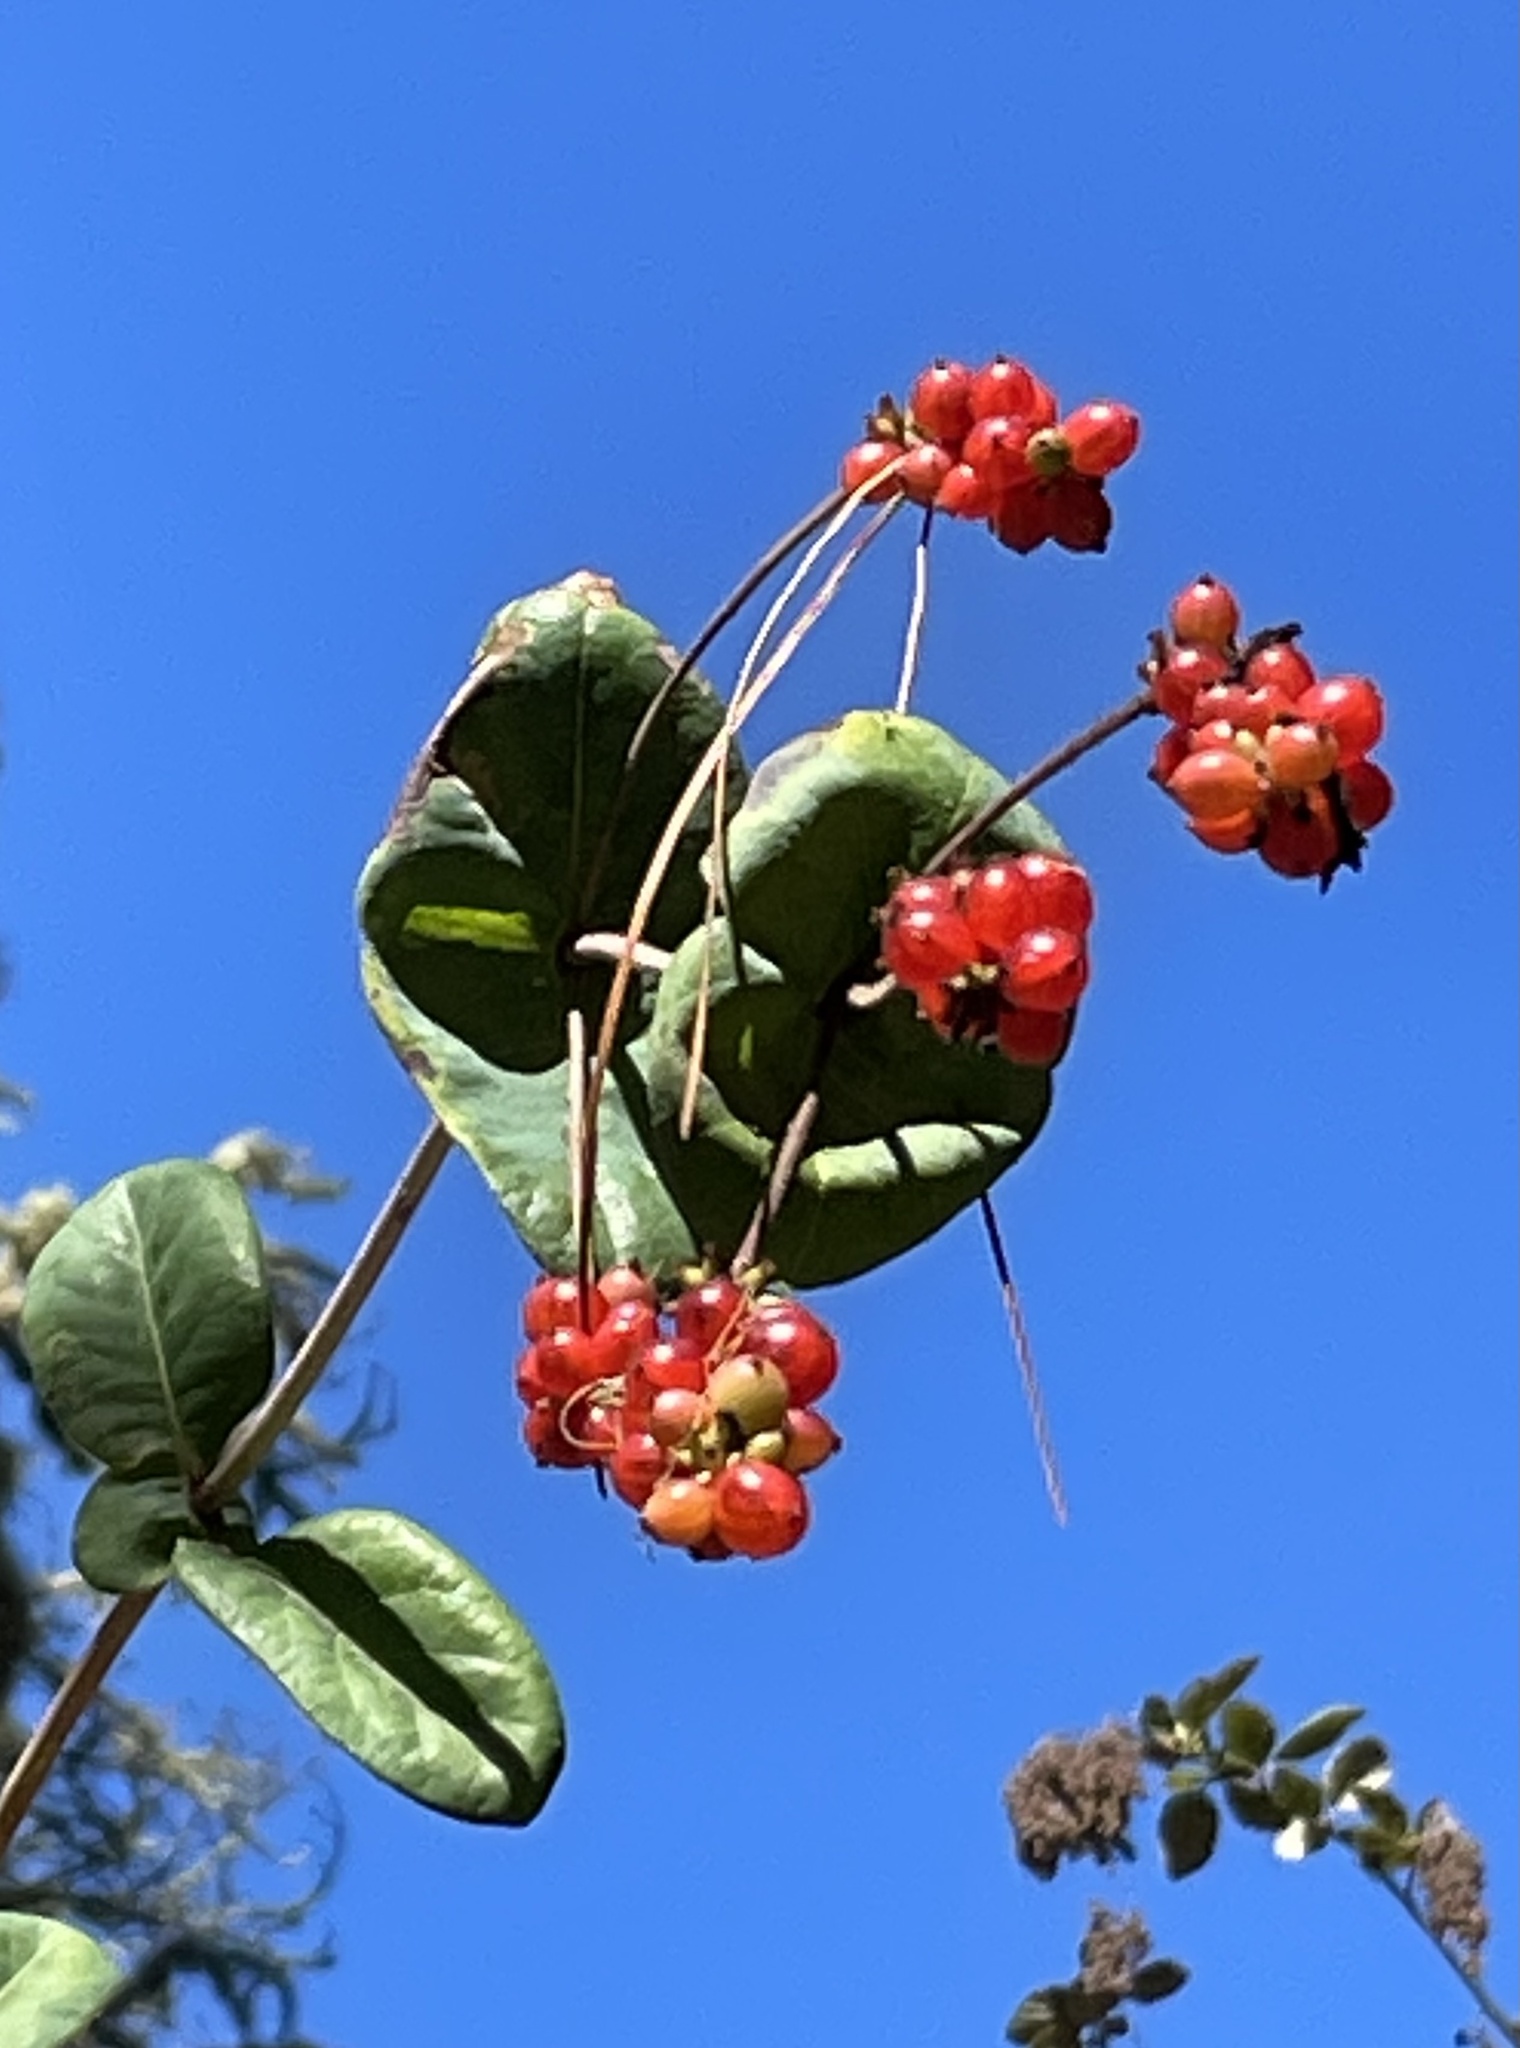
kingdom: Plantae
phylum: Tracheophyta
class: Magnoliopsida
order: Dipsacales
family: Caprifoliaceae
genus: Lonicera
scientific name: Lonicera hispidula
